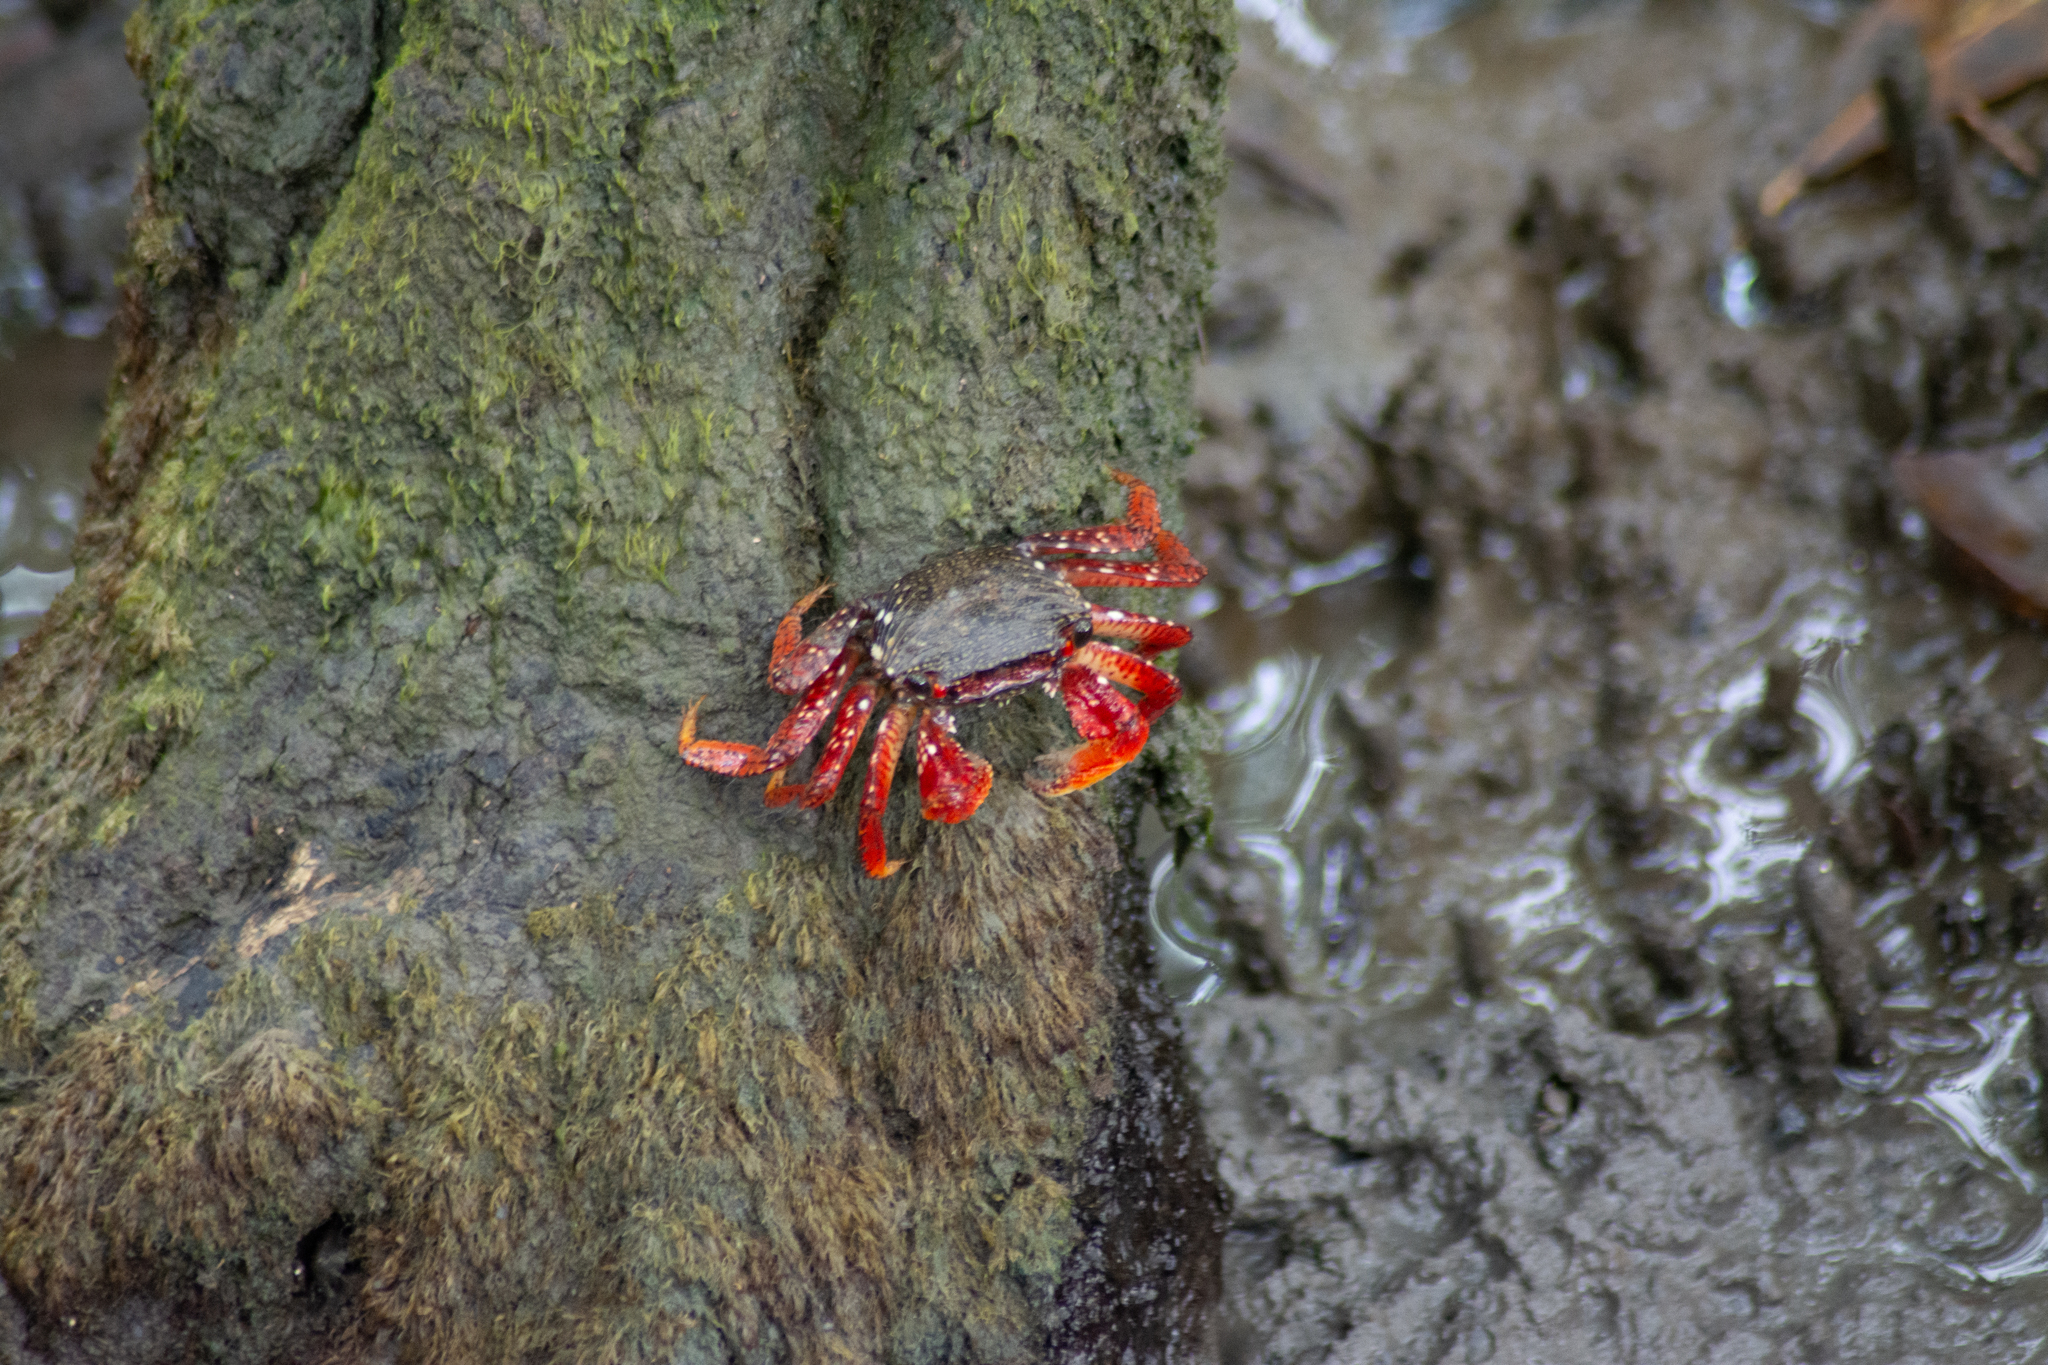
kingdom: Animalia
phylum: Arthropoda
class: Malacostraca
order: Decapoda
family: Grapsidae
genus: Goniopsis
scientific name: Goniopsis cruentata
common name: Mangrove crab
